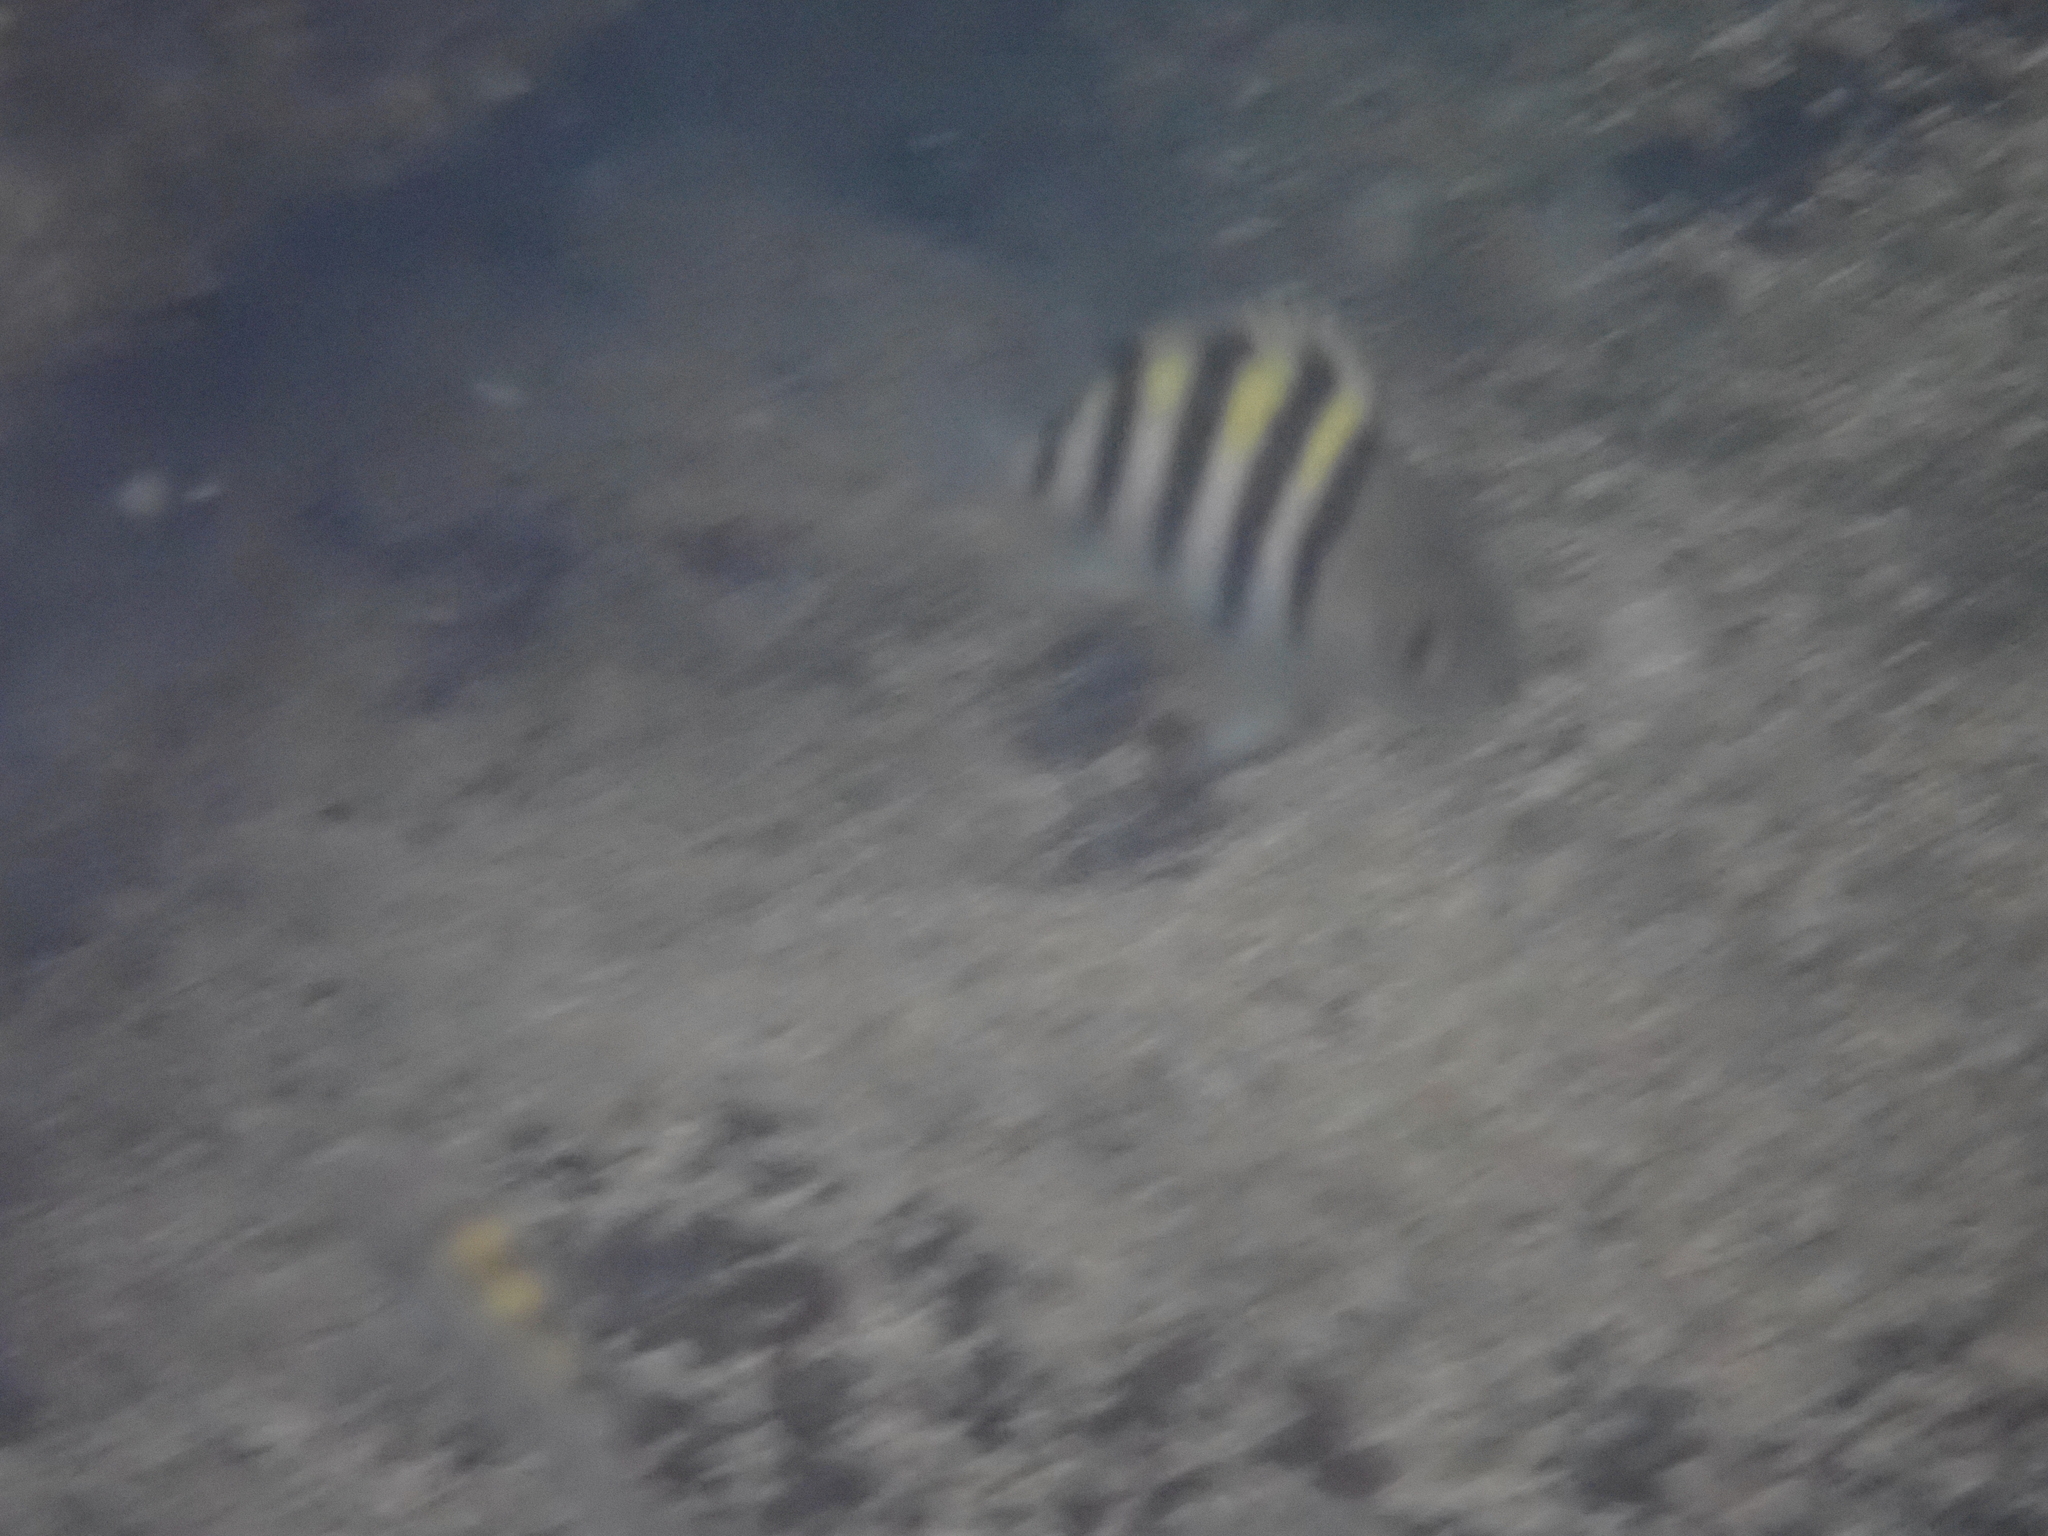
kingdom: Animalia
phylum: Chordata
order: Perciformes
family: Pomacentridae
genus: Abudefduf
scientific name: Abudefduf saxatilis
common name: Sergeant major
